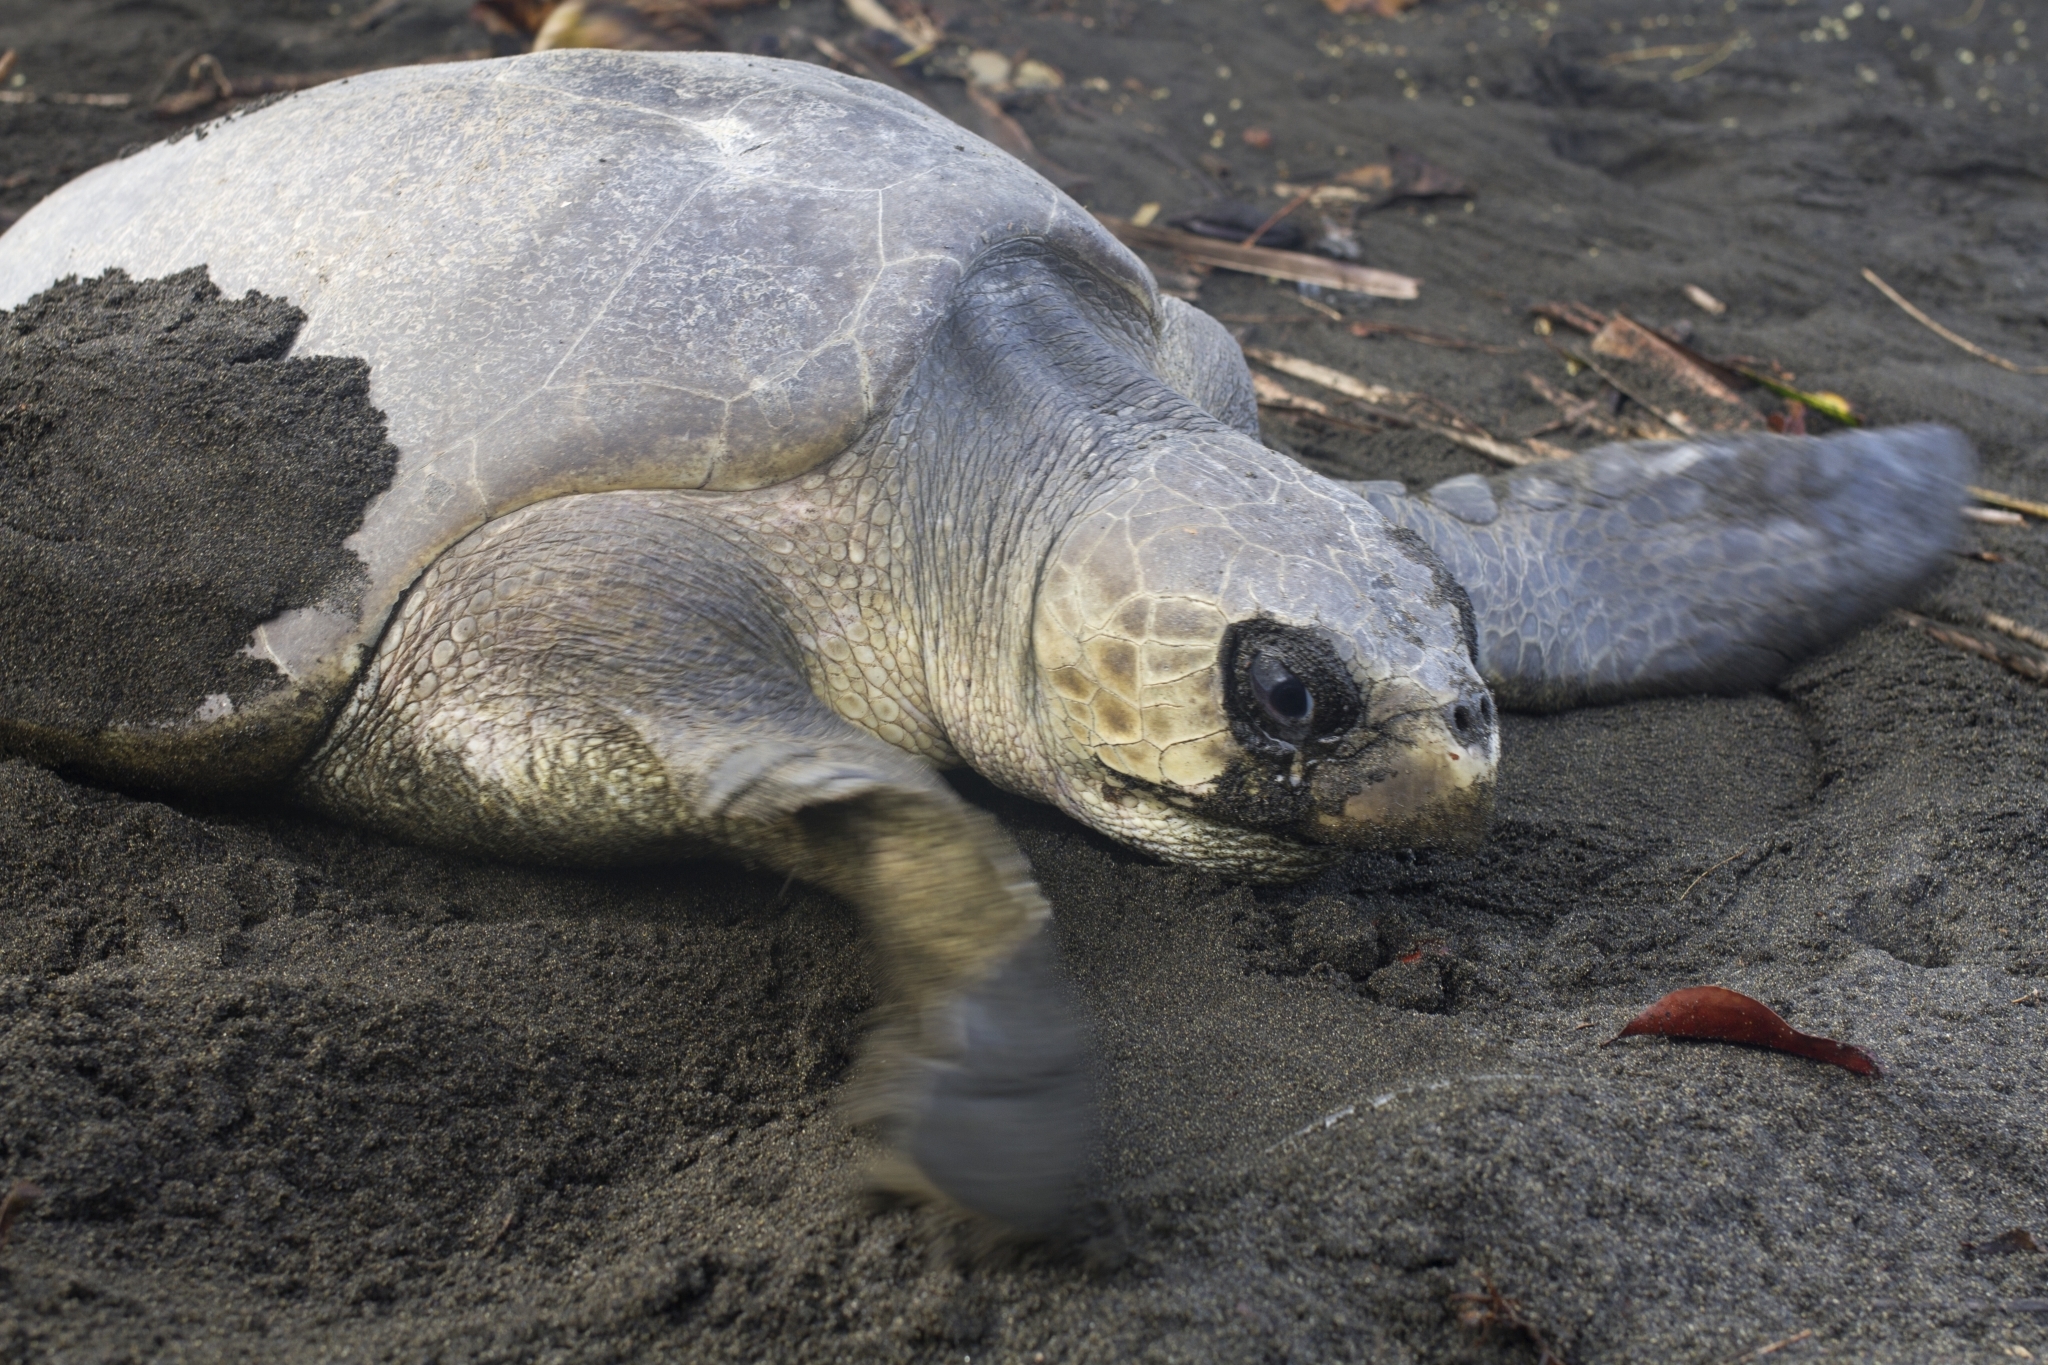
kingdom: Animalia
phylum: Chordata
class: Testudines
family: Cheloniidae
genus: Lepidochelys
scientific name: Lepidochelys olivacea
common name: Olive ridley
